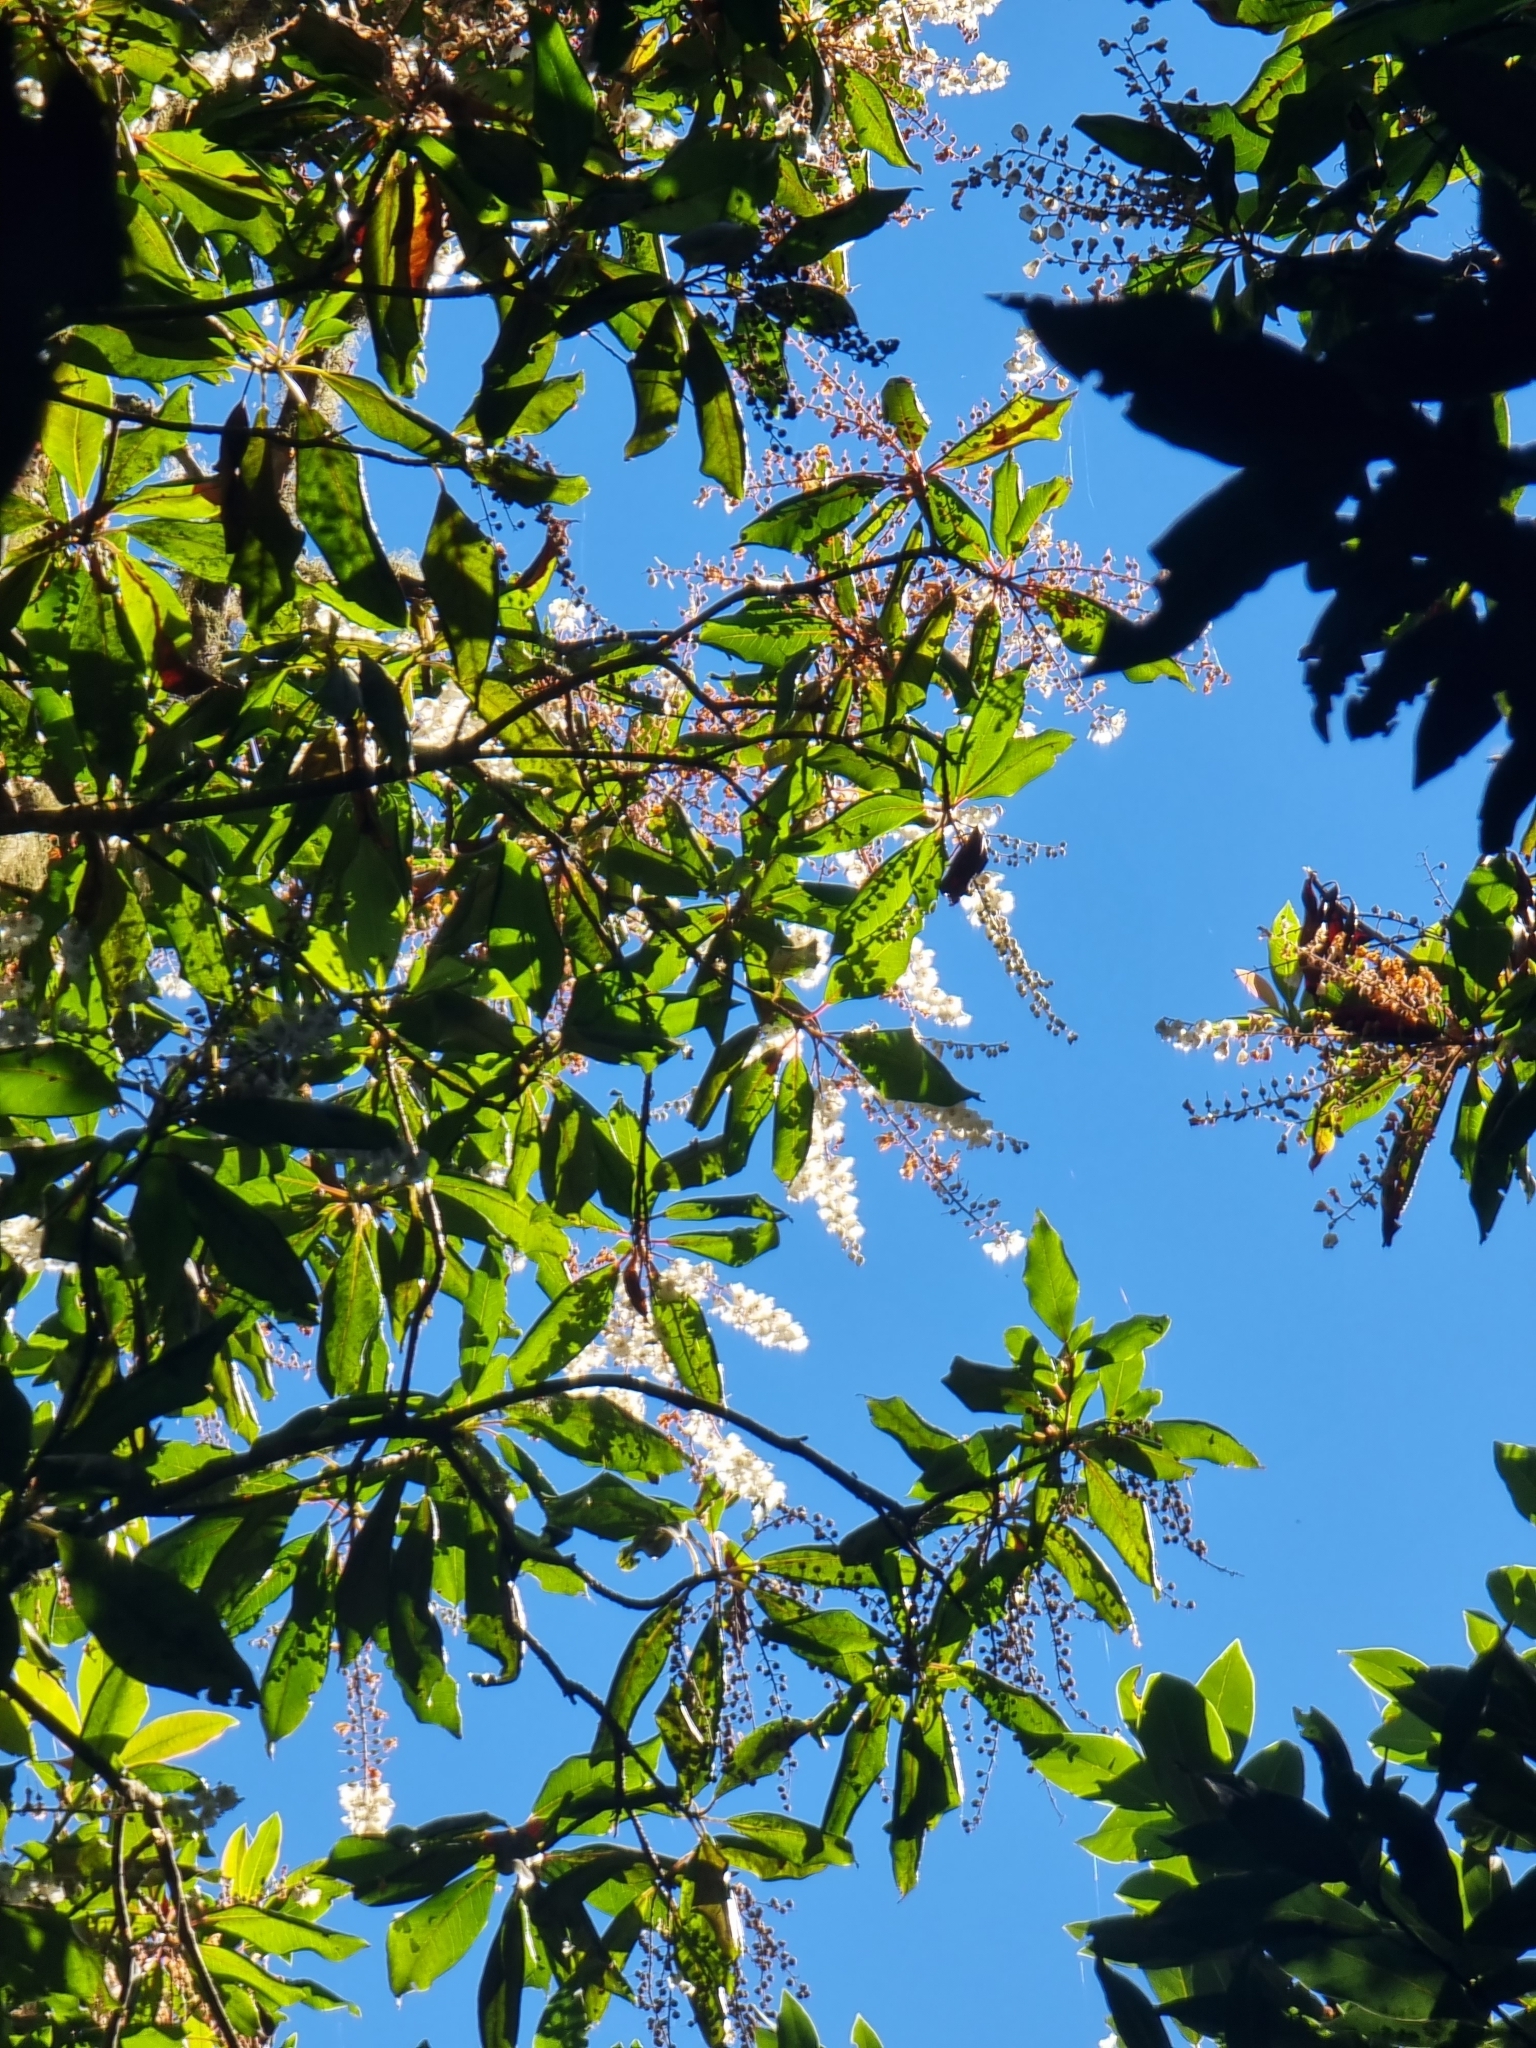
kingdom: Plantae
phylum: Tracheophyta
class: Magnoliopsida
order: Ericales
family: Clethraceae
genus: Clethra
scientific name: Clethra arborea
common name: Lily-of-the-valley-tree
